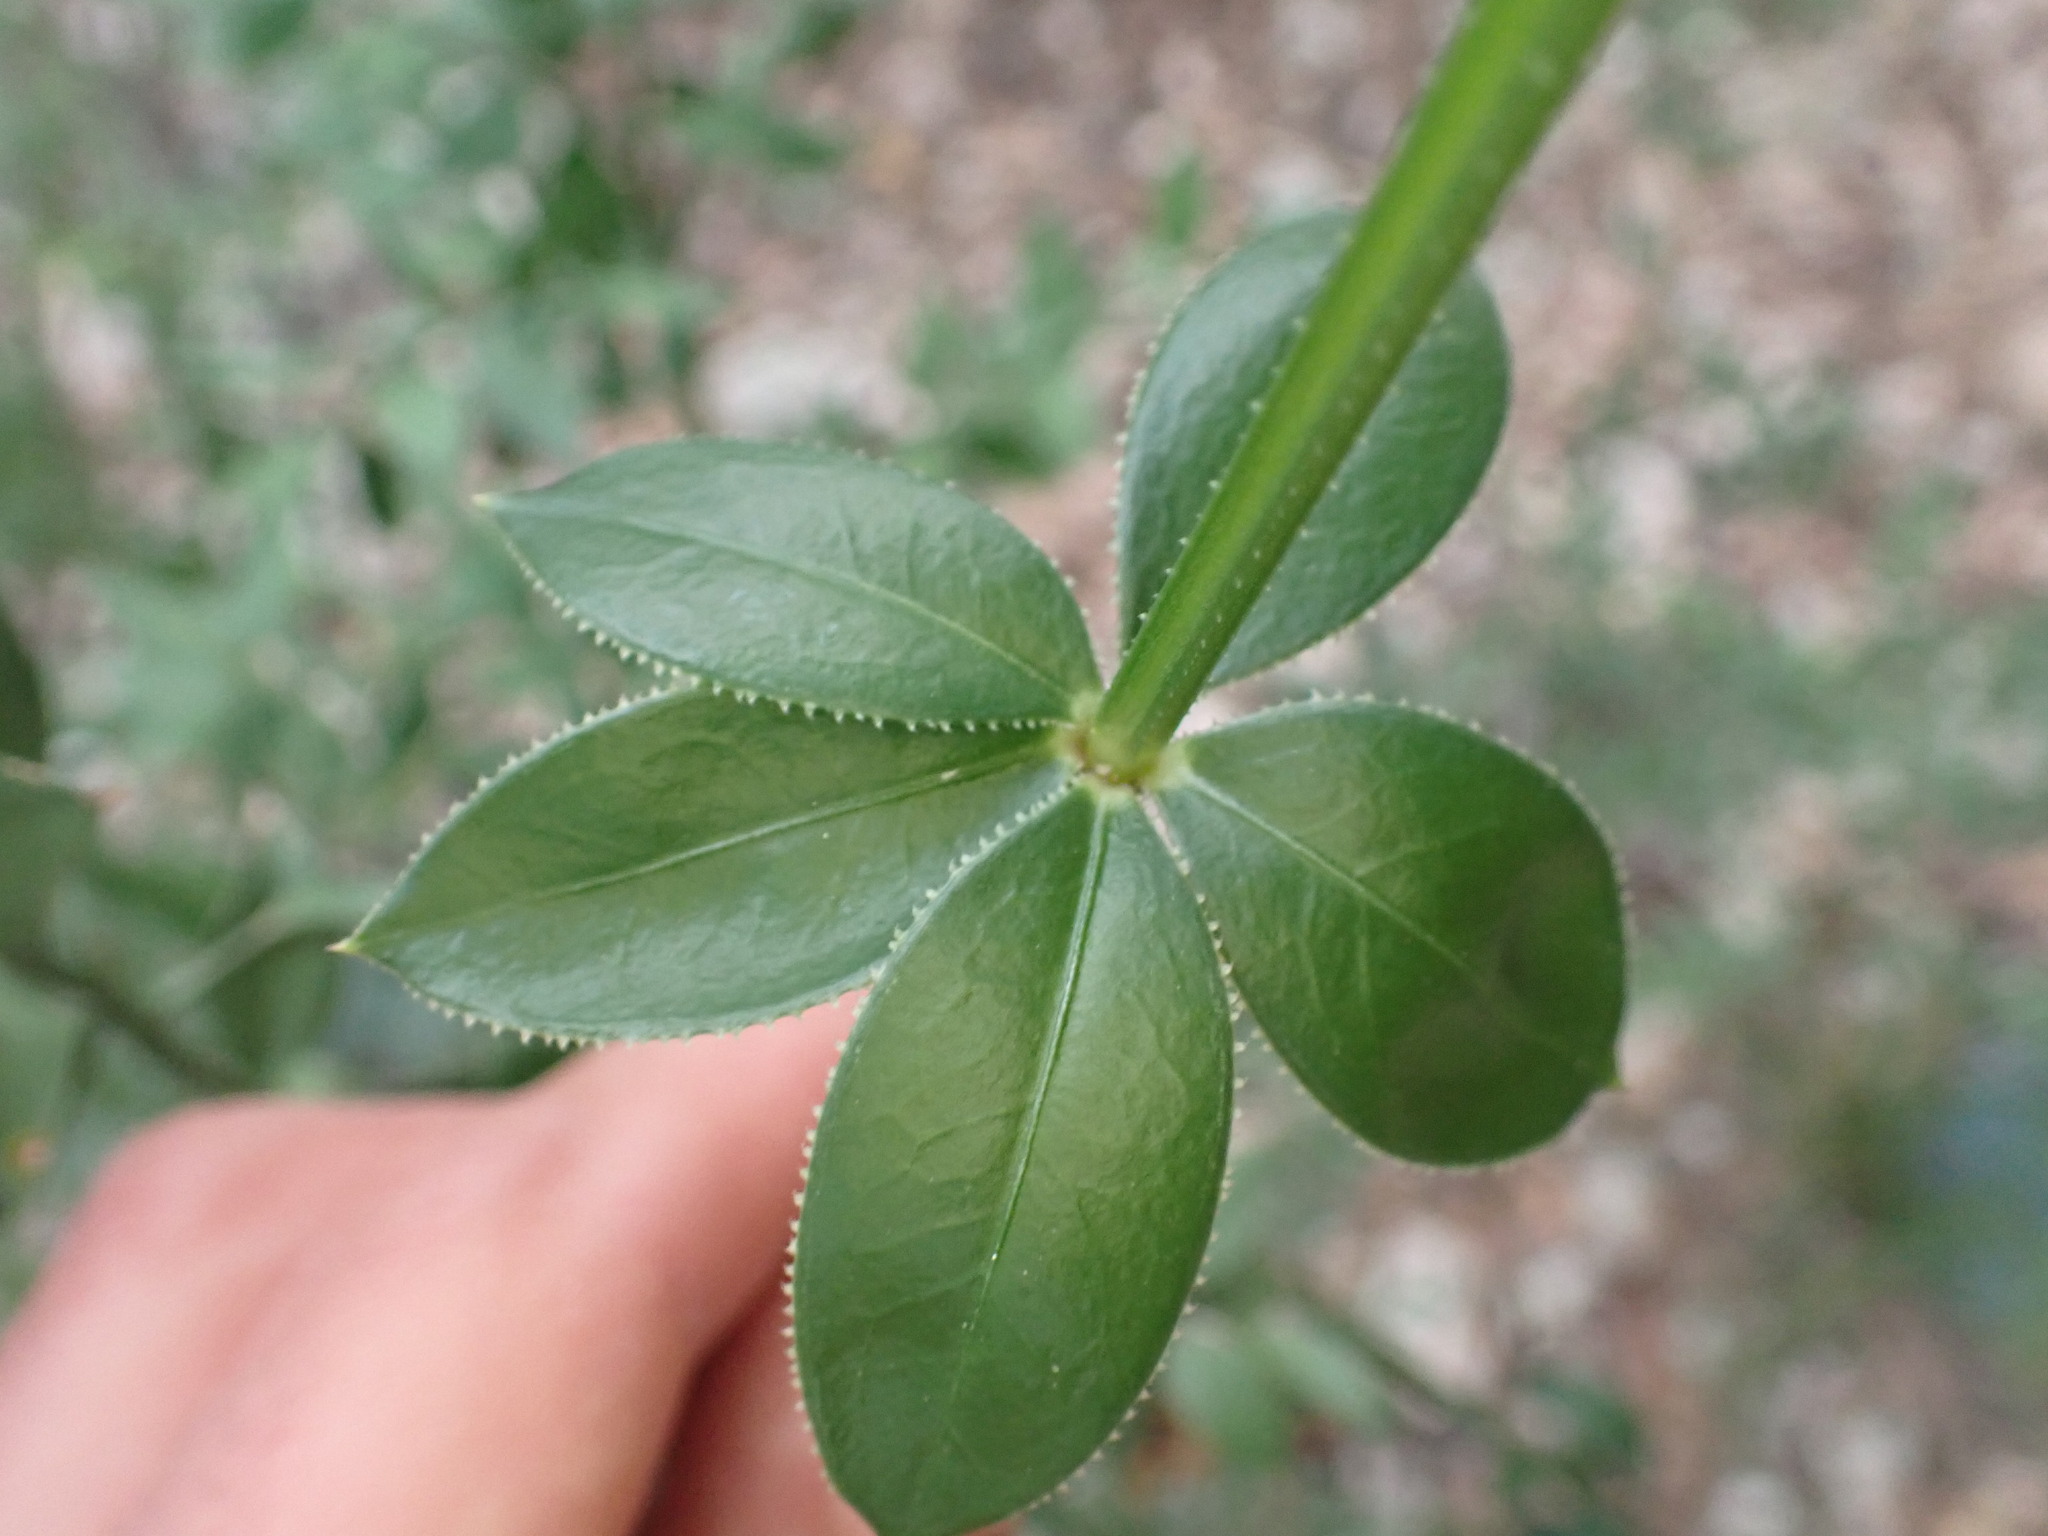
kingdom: Plantae
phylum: Tracheophyta
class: Magnoliopsida
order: Gentianales
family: Rubiaceae
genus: Rubia
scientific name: Rubia peregrina
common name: Wild madder
